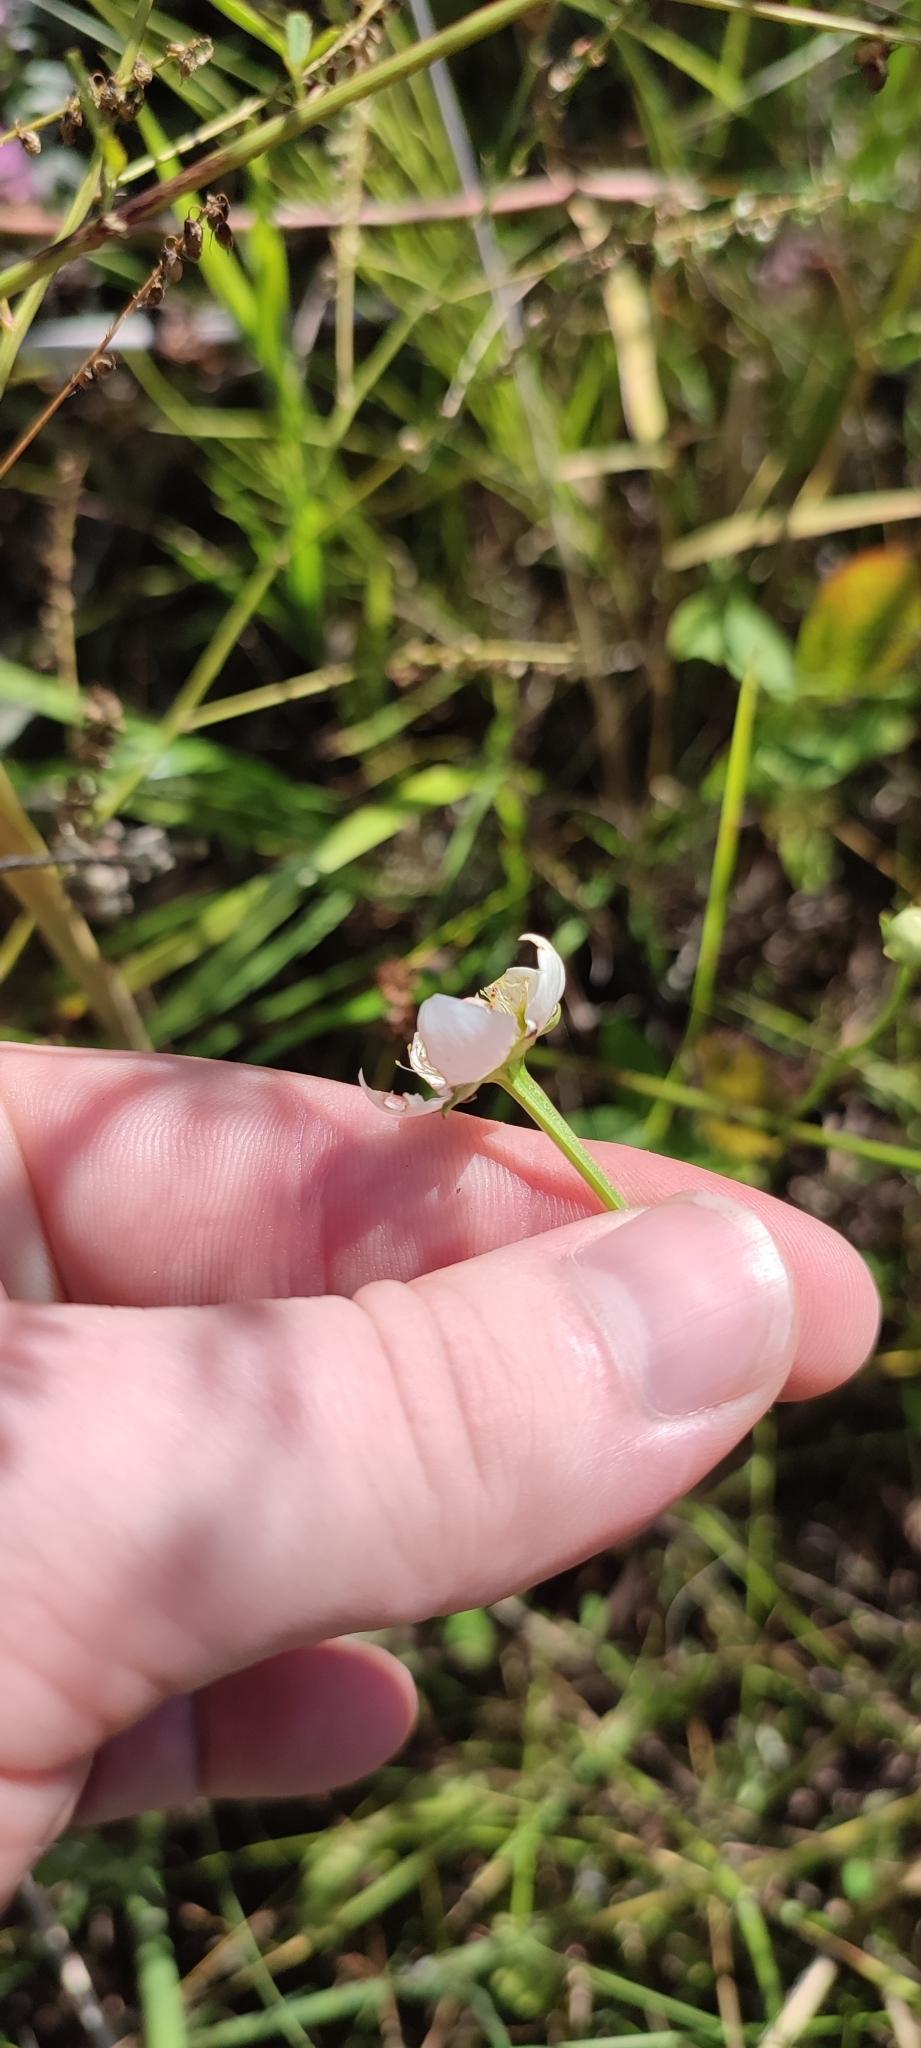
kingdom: Plantae
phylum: Tracheophyta
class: Magnoliopsida
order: Celastrales
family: Parnassiaceae
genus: Parnassia
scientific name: Parnassia palustris
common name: Grass-of-parnassus
